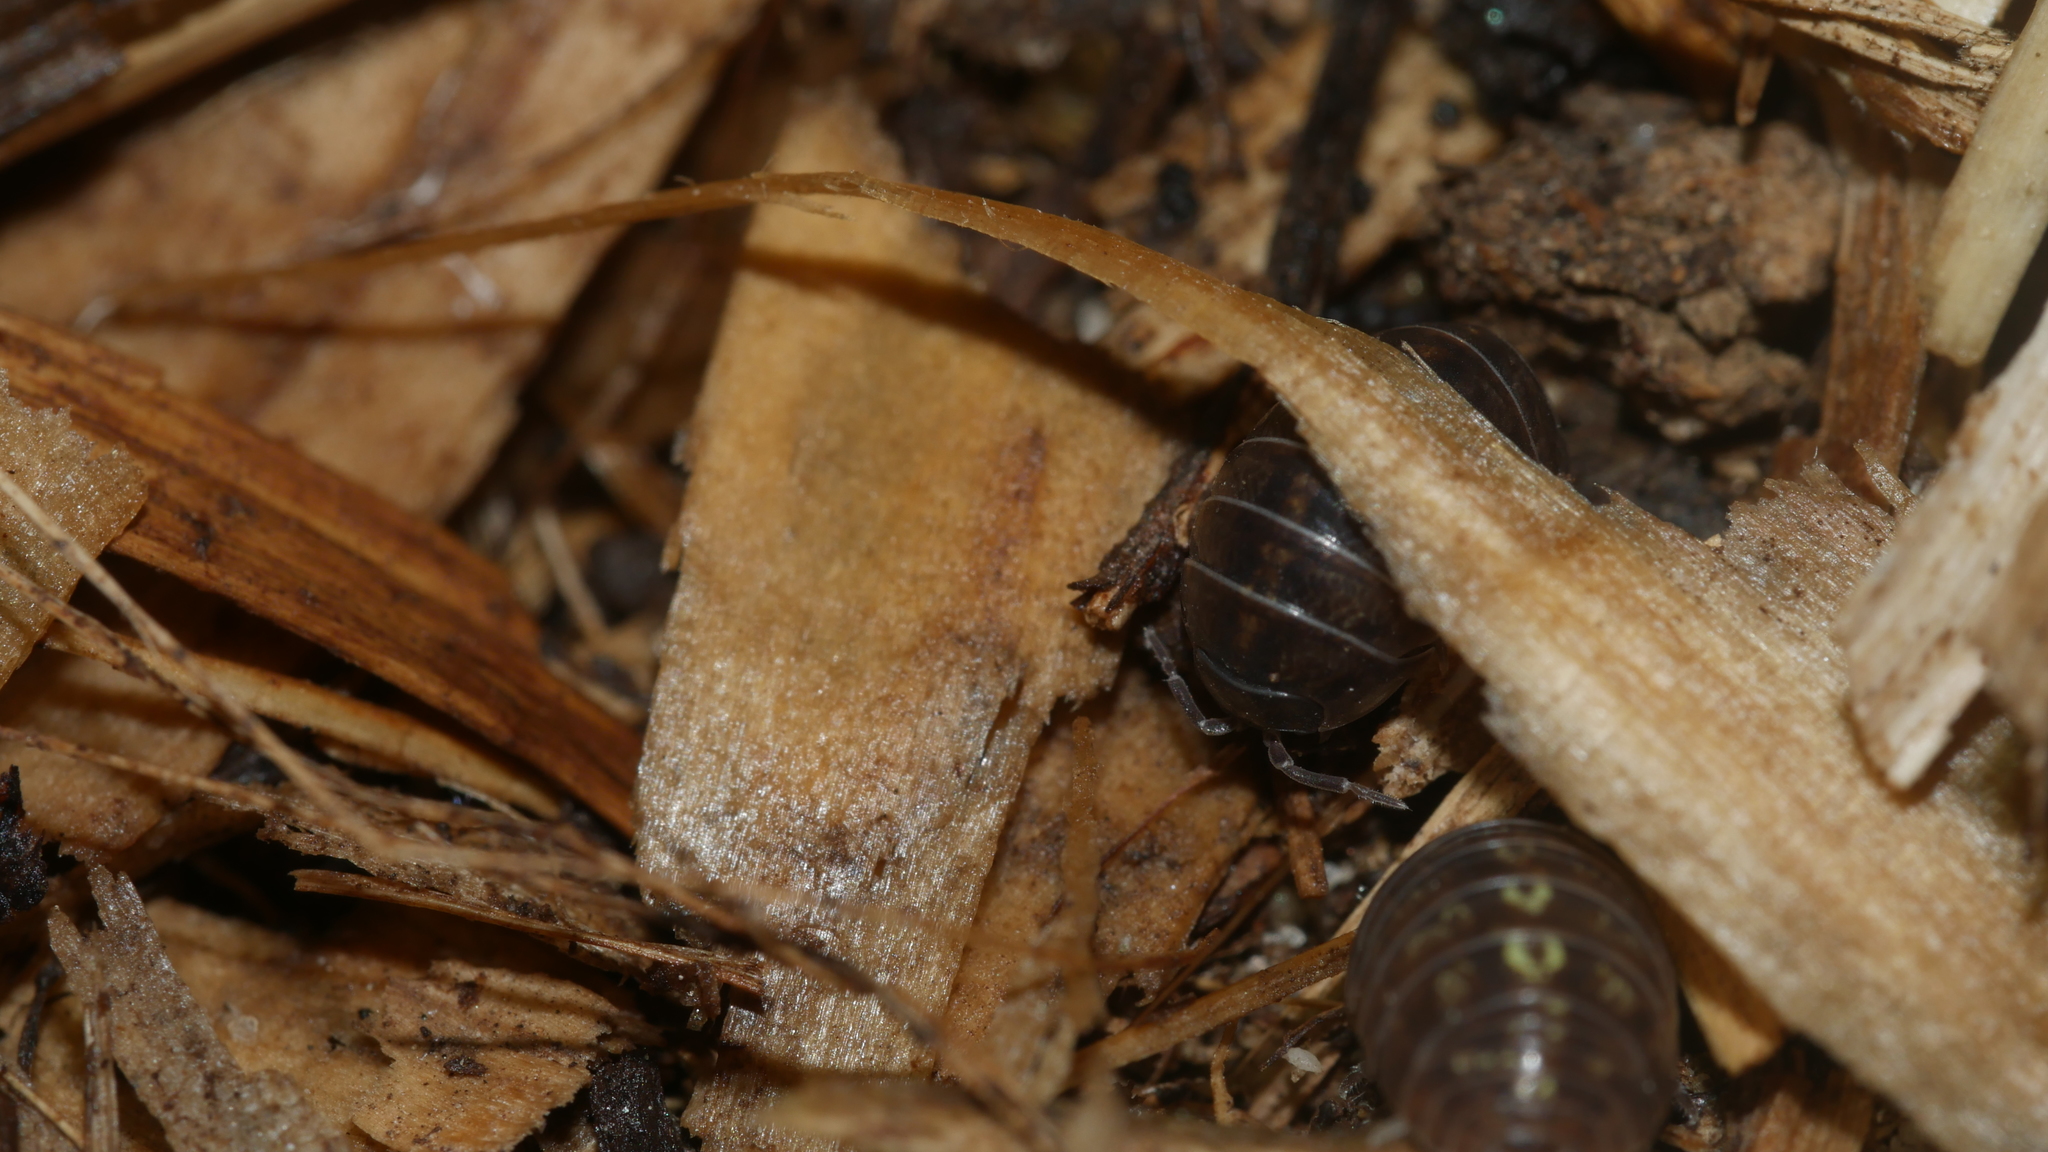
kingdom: Animalia
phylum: Arthropoda
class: Malacostraca
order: Isopoda
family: Armadillidiidae
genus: Armadillidium
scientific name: Armadillidium vulgare
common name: Common pill woodlouse
